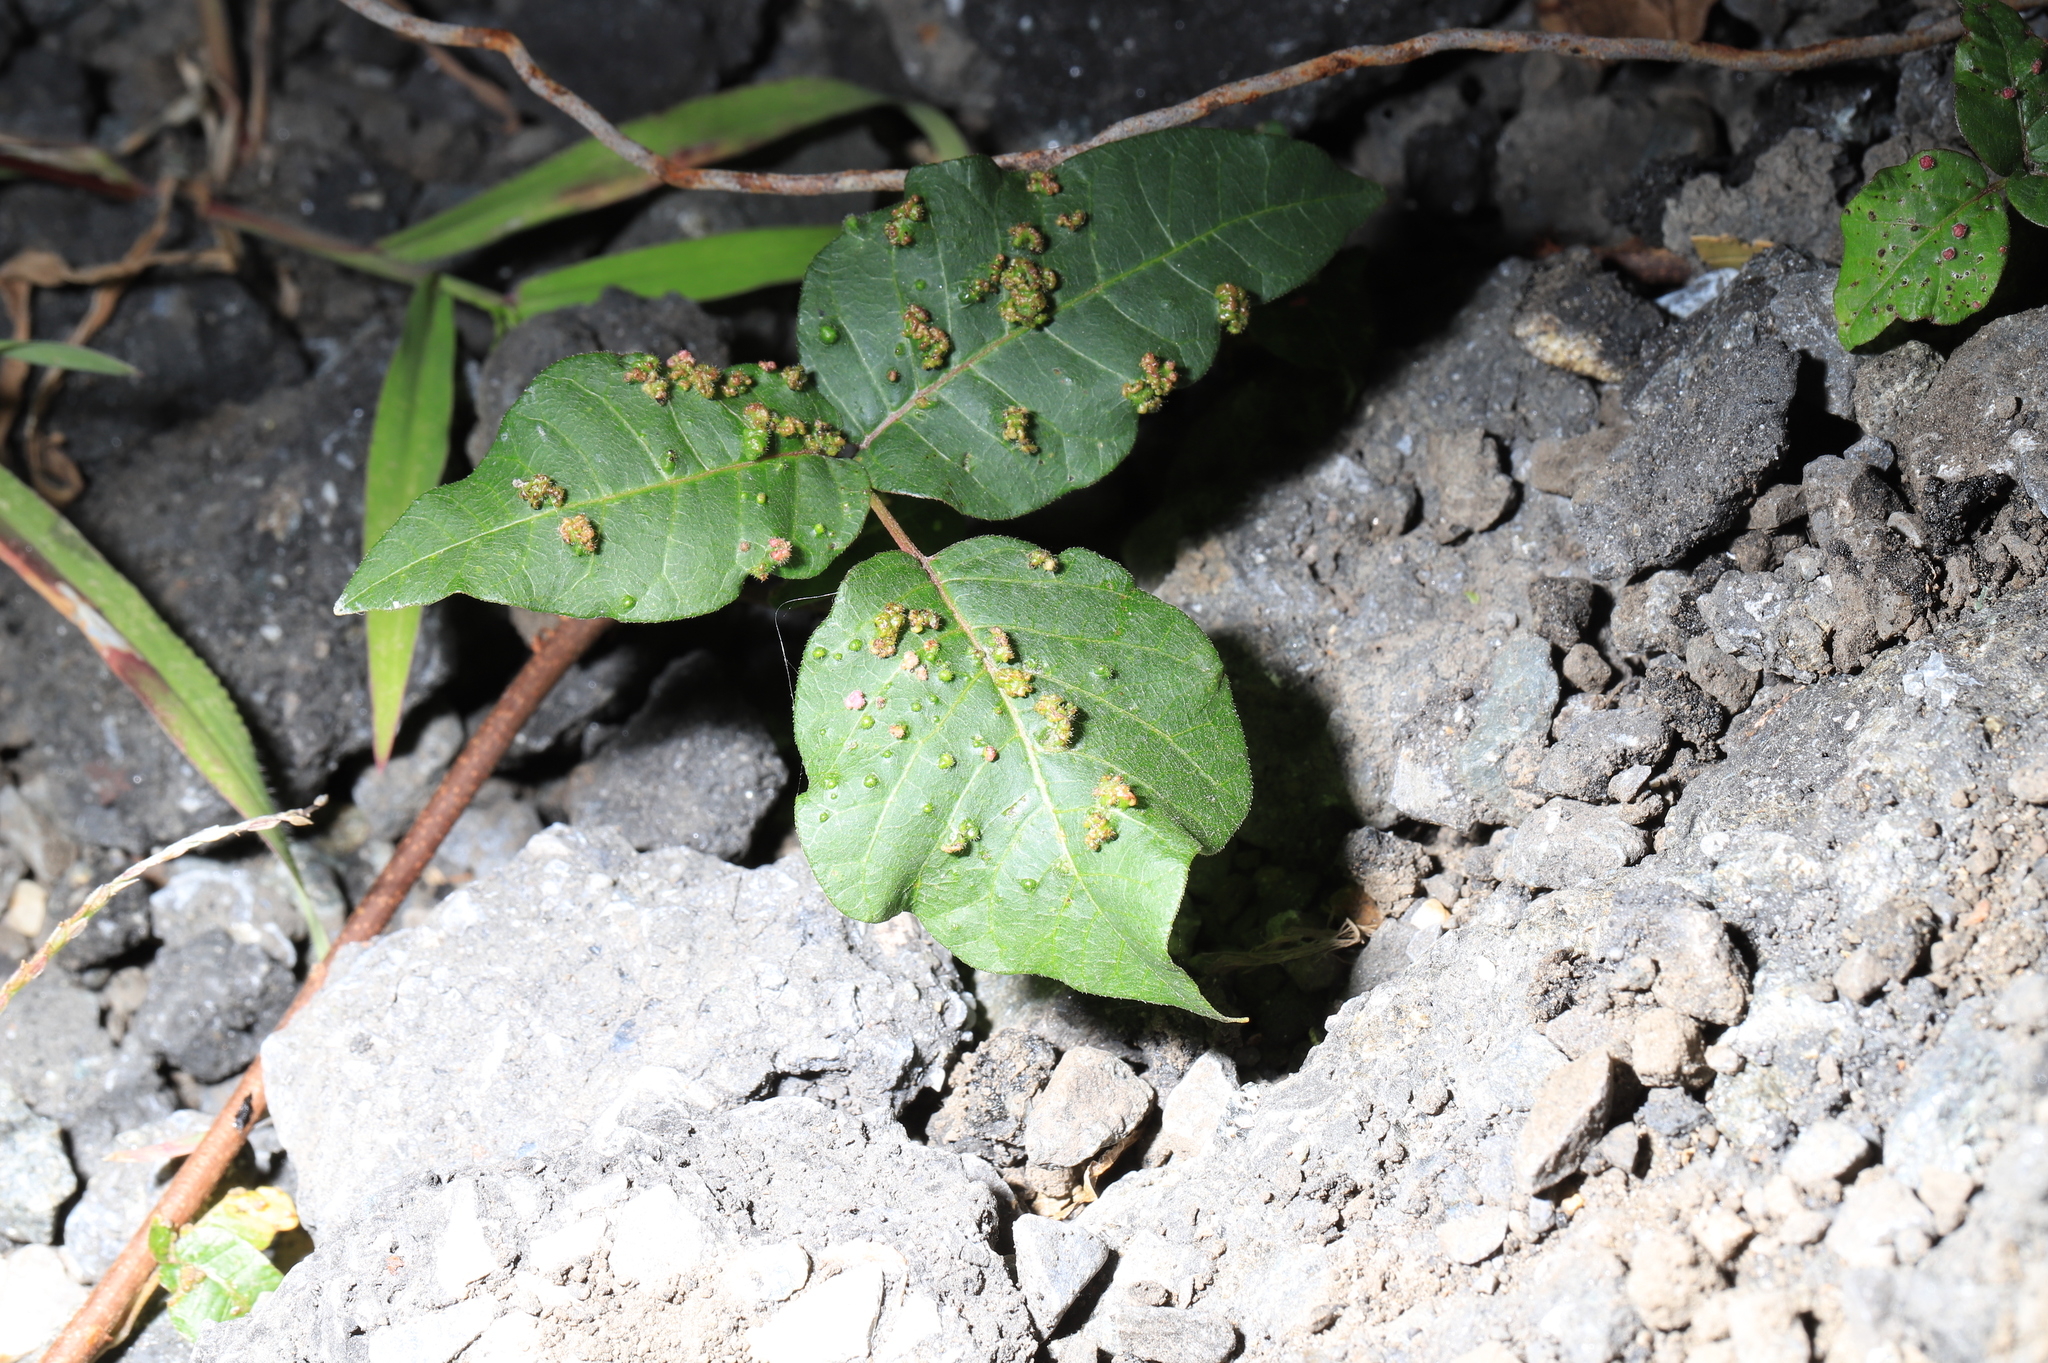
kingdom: Plantae
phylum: Tracheophyta
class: Magnoliopsida
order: Sapindales
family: Anacardiaceae
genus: Toxicodendron
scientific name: Toxicodendron radicans
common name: Poison ivy
